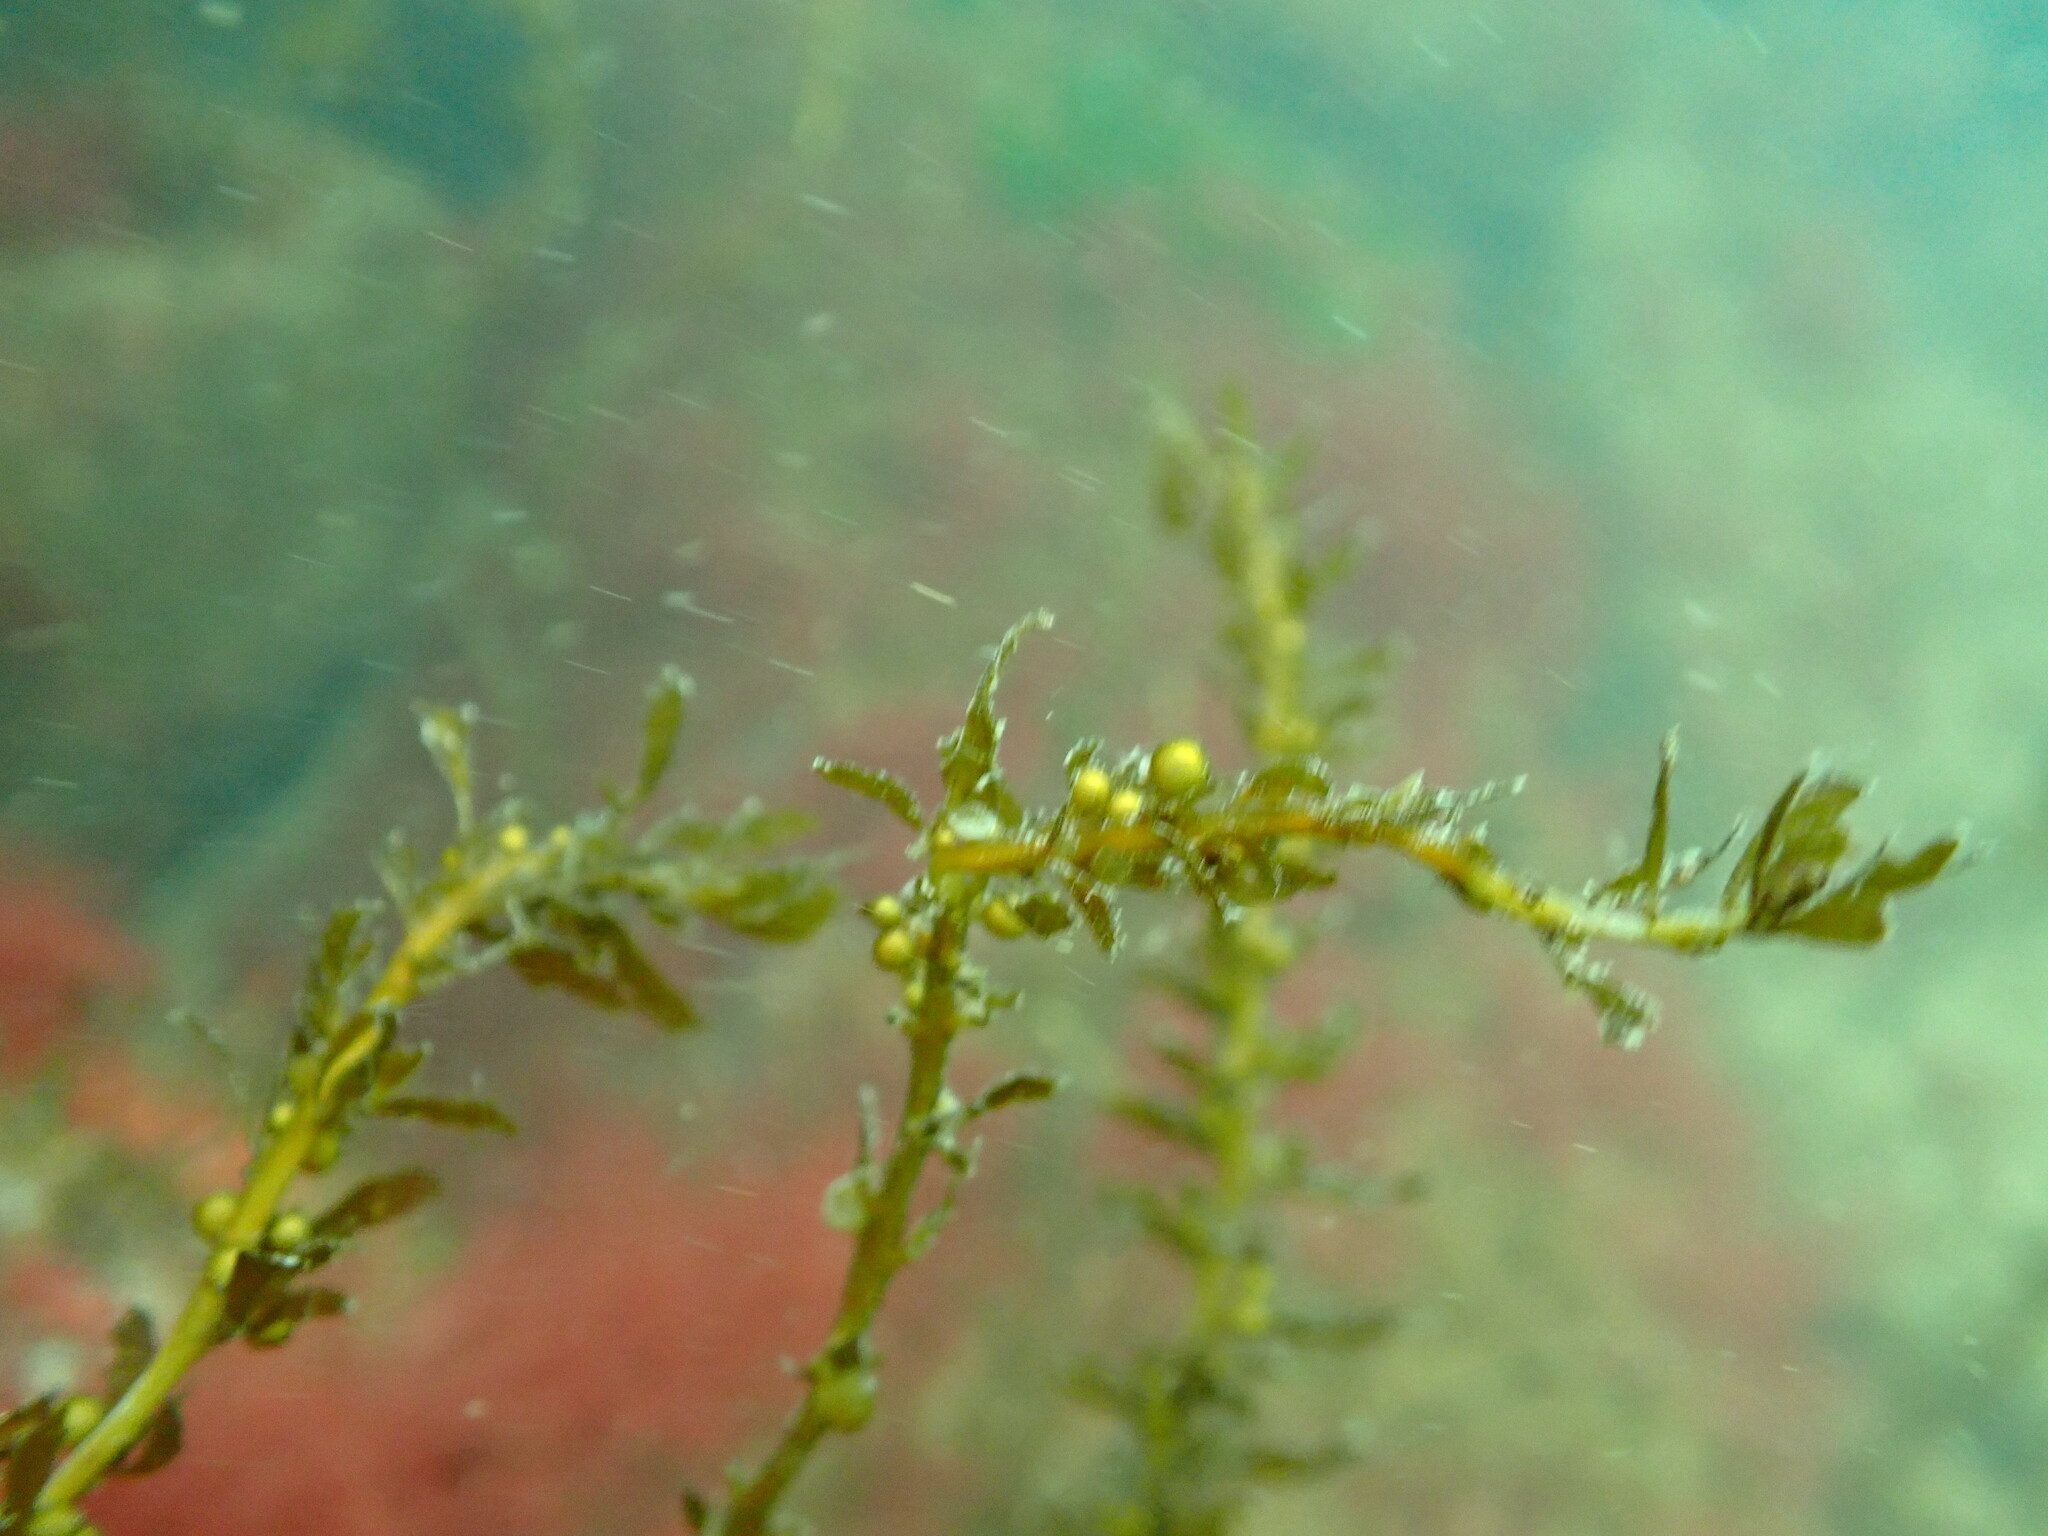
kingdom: Chromista
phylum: Ochrophyta
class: Phaeophyceae
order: Fucales
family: Sargassaceae
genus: Sargassum
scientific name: Sargassum muticum
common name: Japweed
